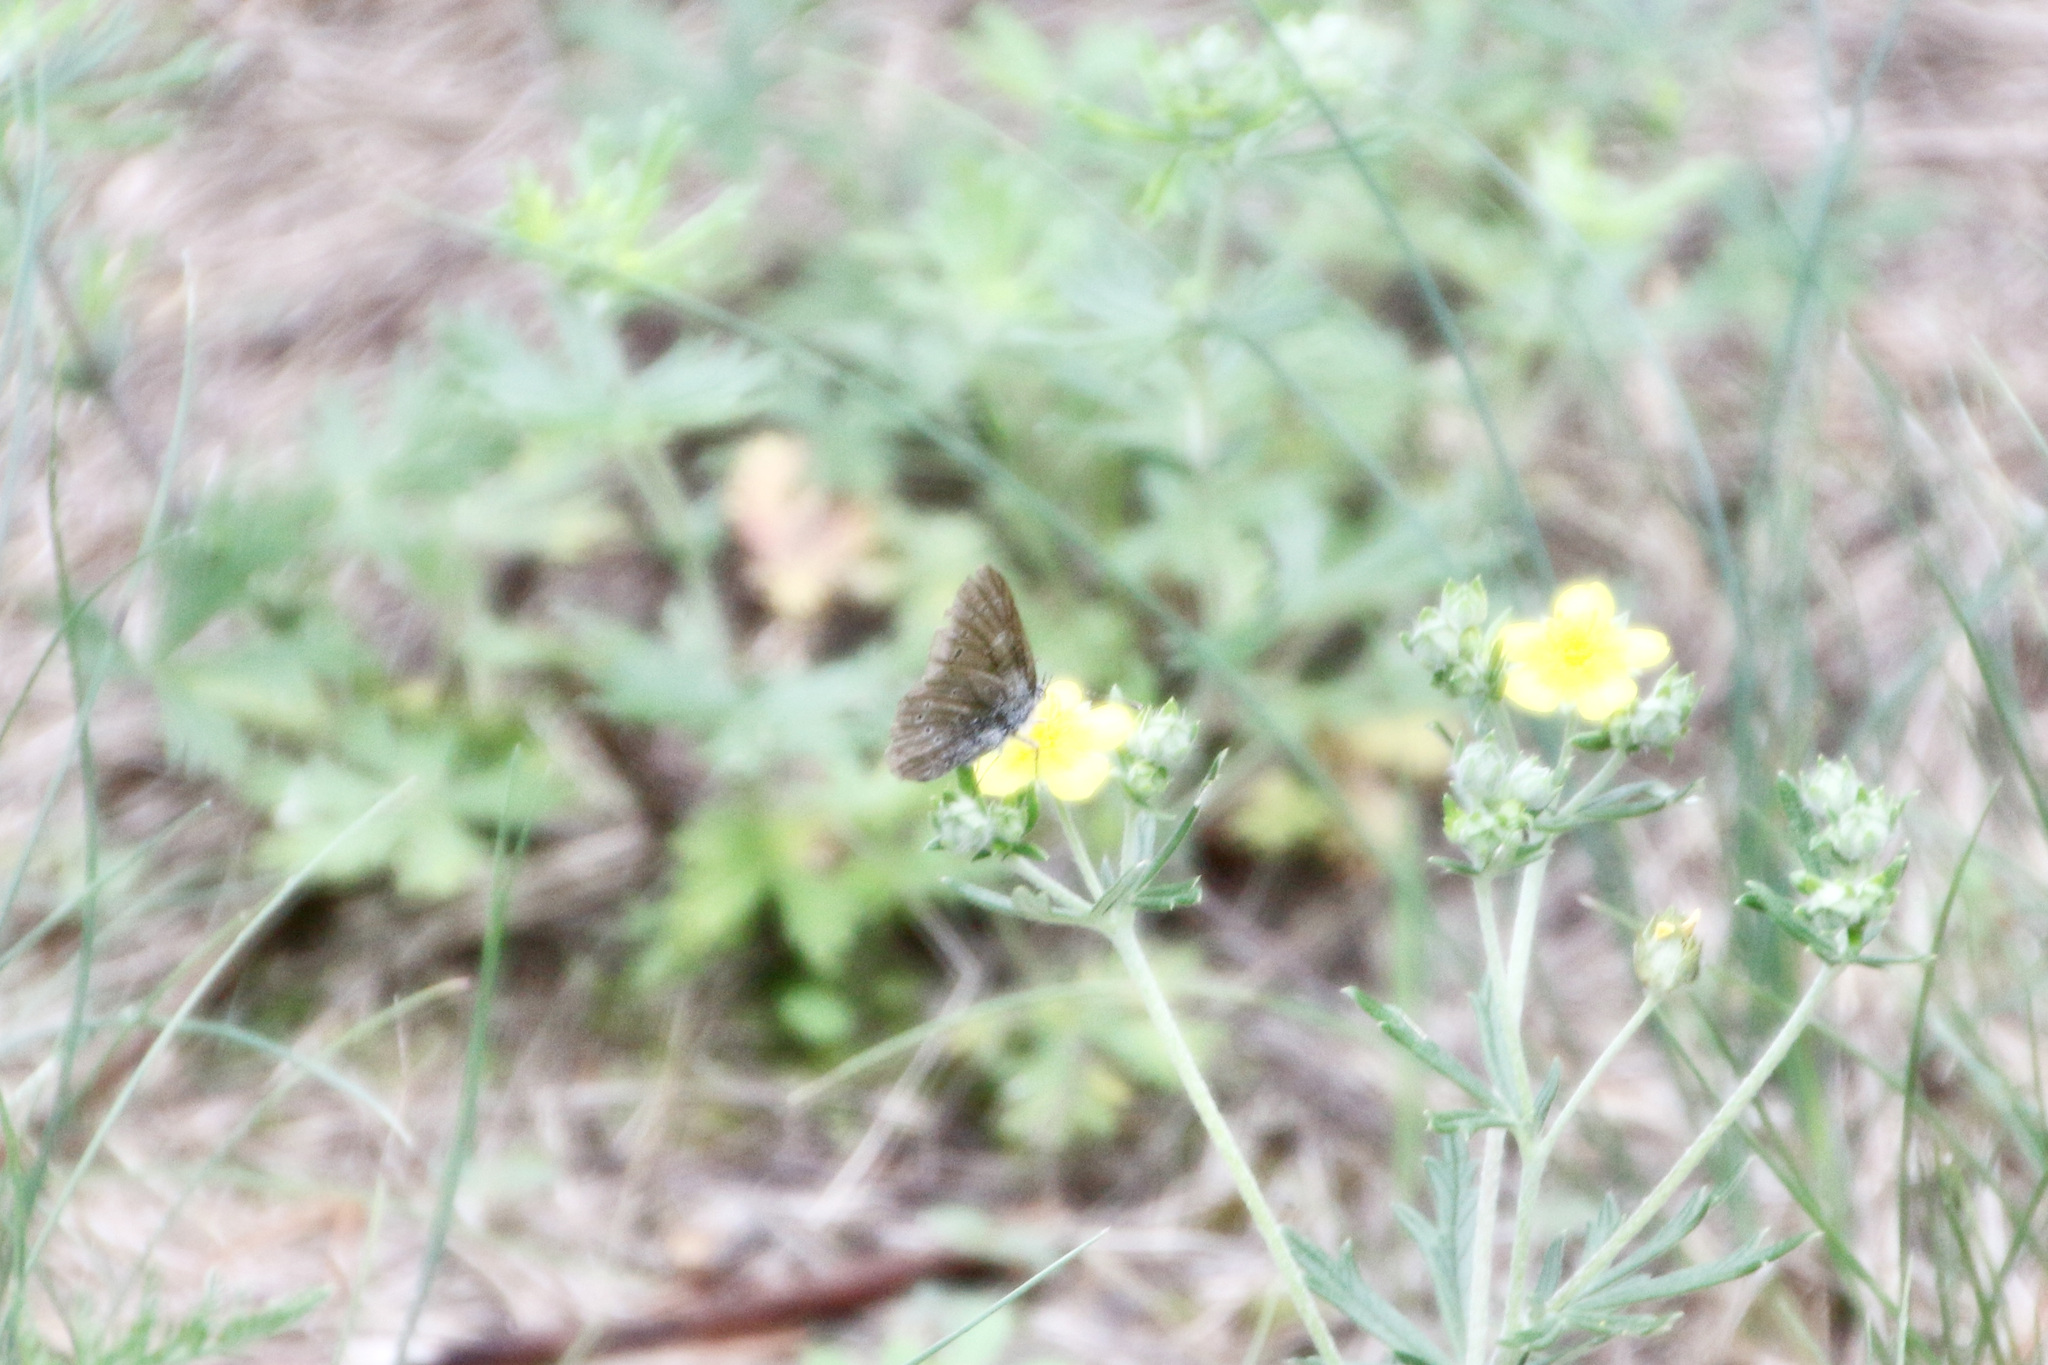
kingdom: Animalia
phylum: Arthropoda
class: Insecta
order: Lepidoptera
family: Lycaenidae
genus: Glaucopsyche
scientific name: Glaucopsyche lygdamus
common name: Silvery blue
